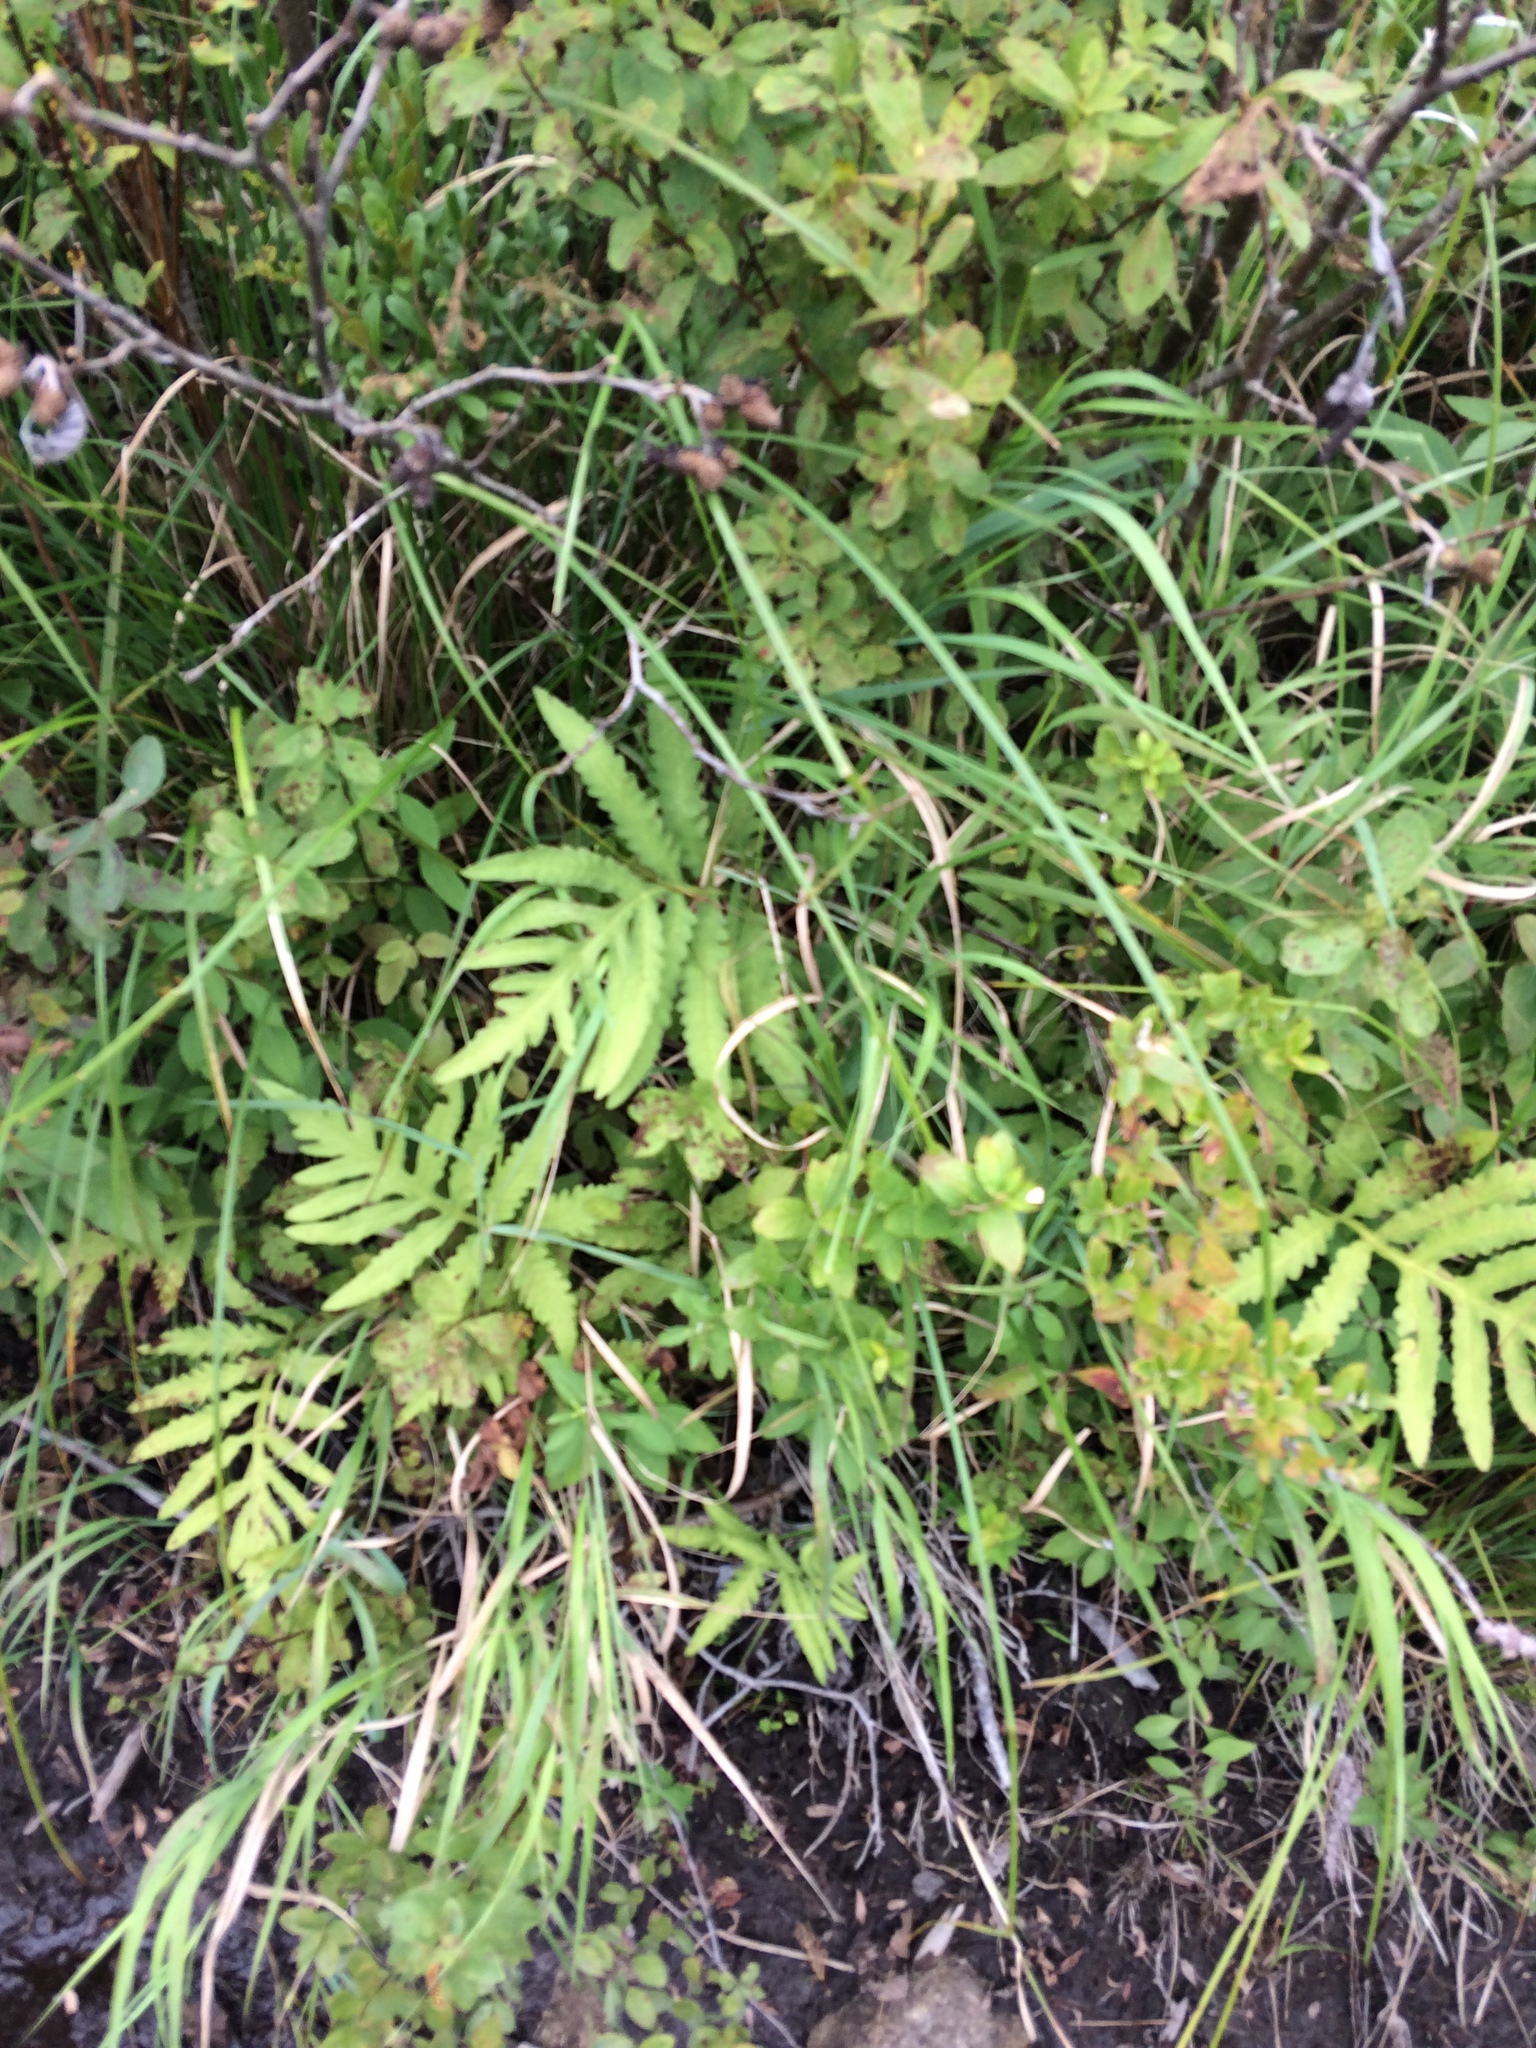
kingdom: Plantae
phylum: Tracheophyta
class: Polypodiopsida
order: Polypodiales
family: Onocleaceae
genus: Onoclea
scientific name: Onoclea sensibilis
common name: Sensitive fern
